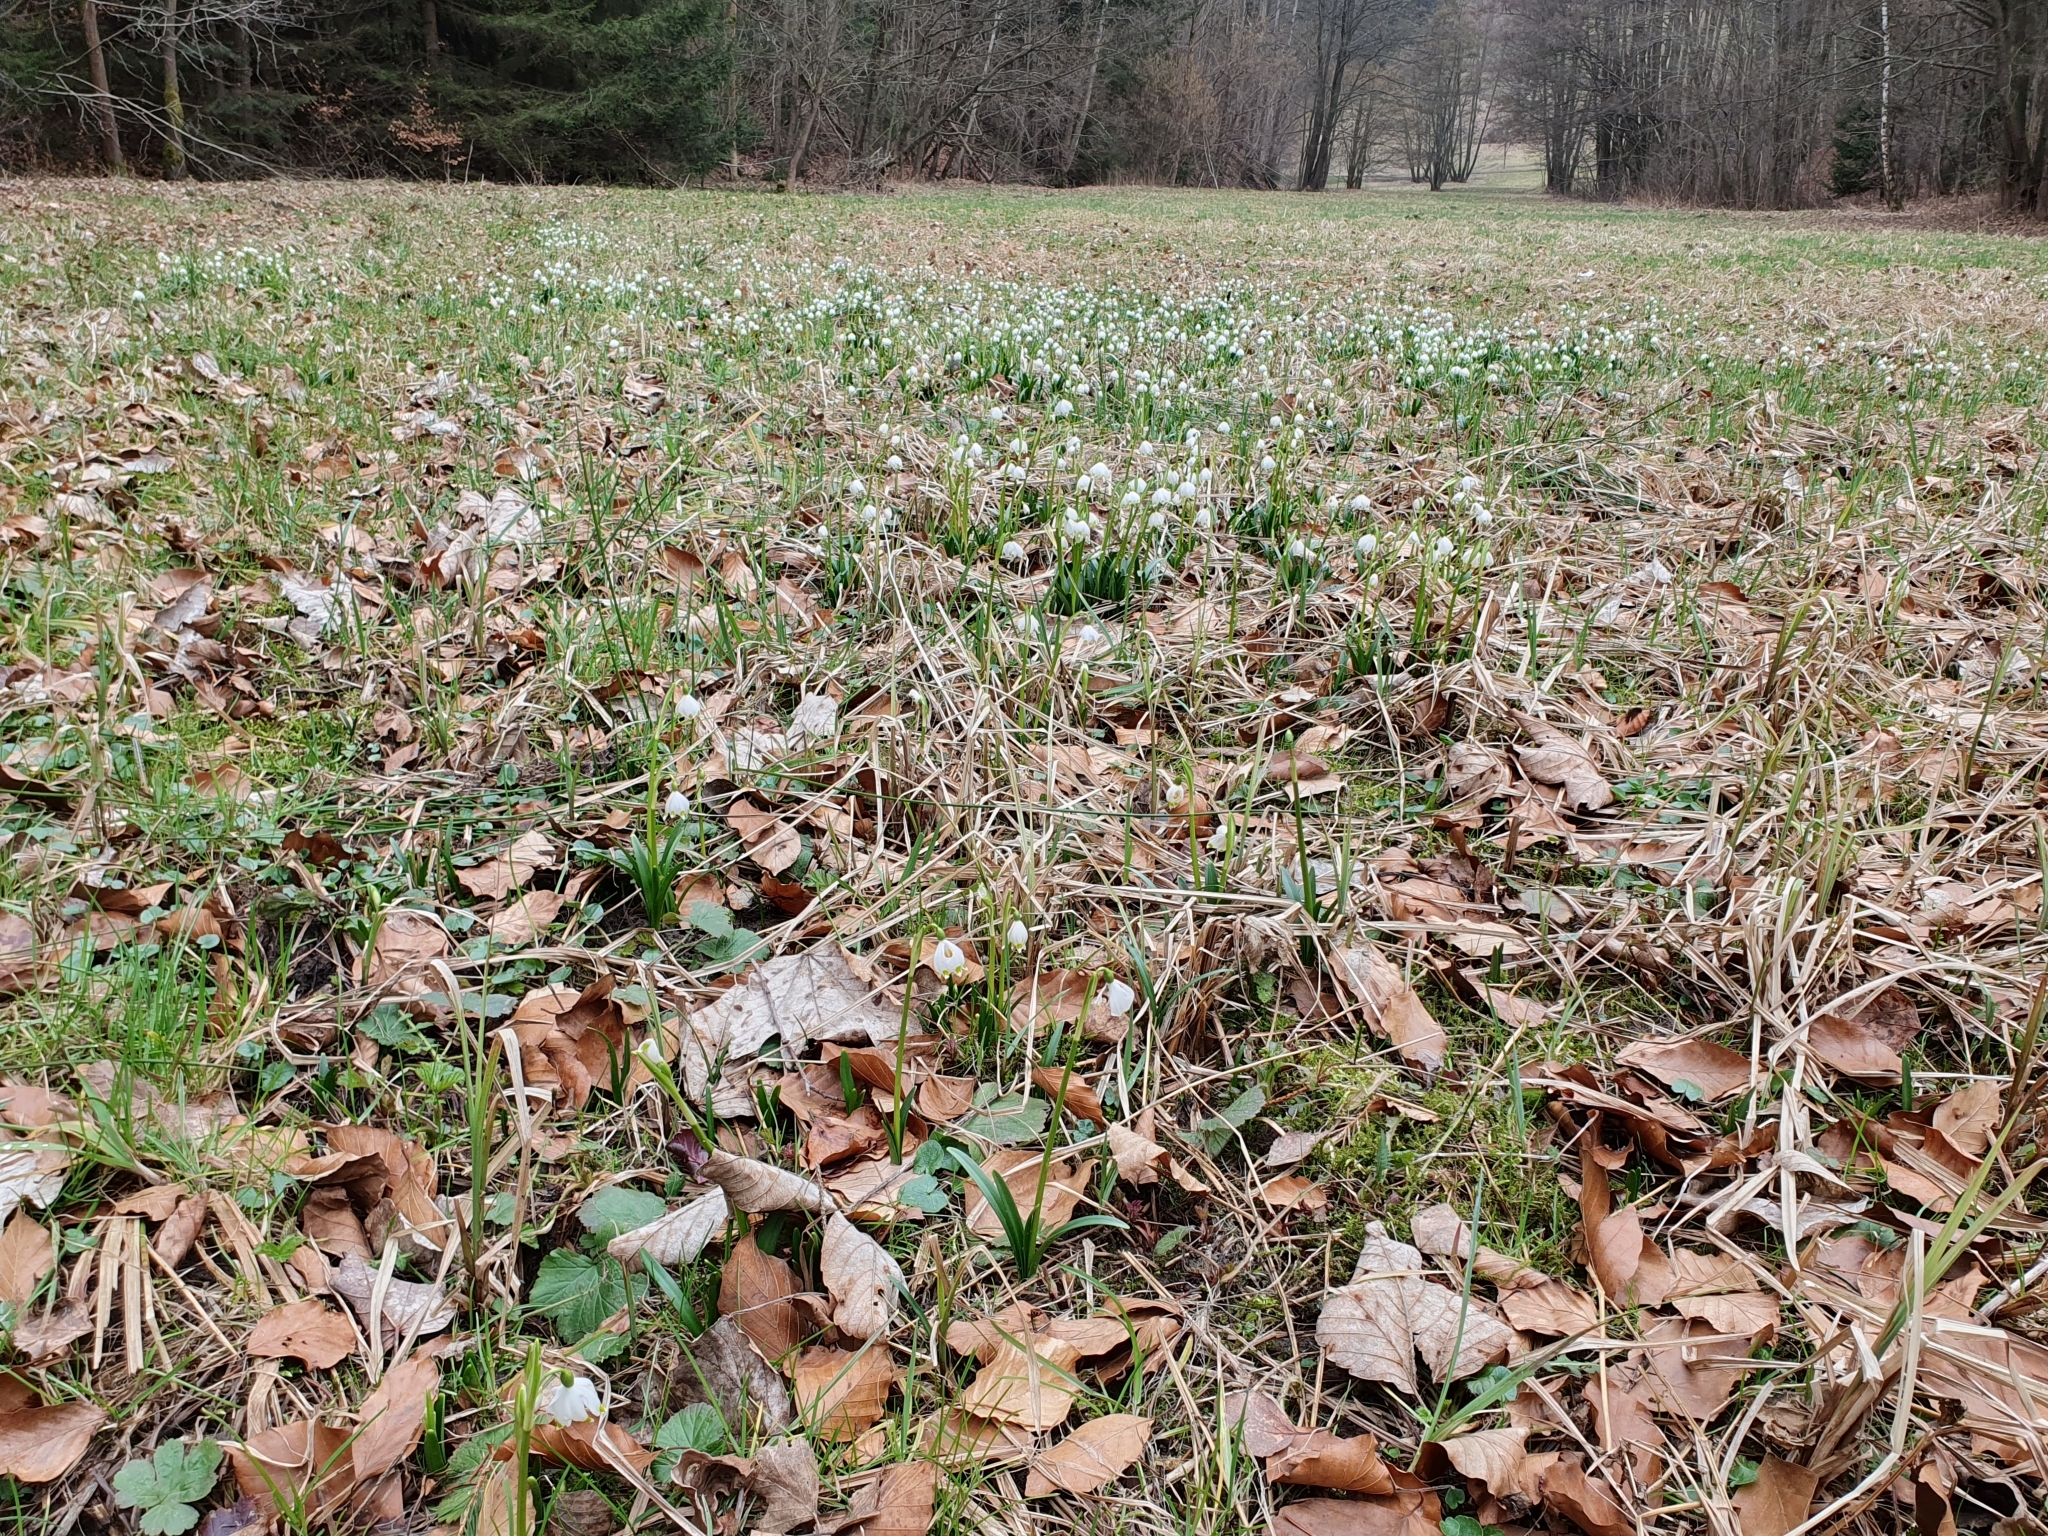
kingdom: Plantae
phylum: Tracheophyta
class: Liliopsida
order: Asparagales
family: Amaryllidaceae
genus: Leucojum
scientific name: Leucojum vernum
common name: Spring snowflake
